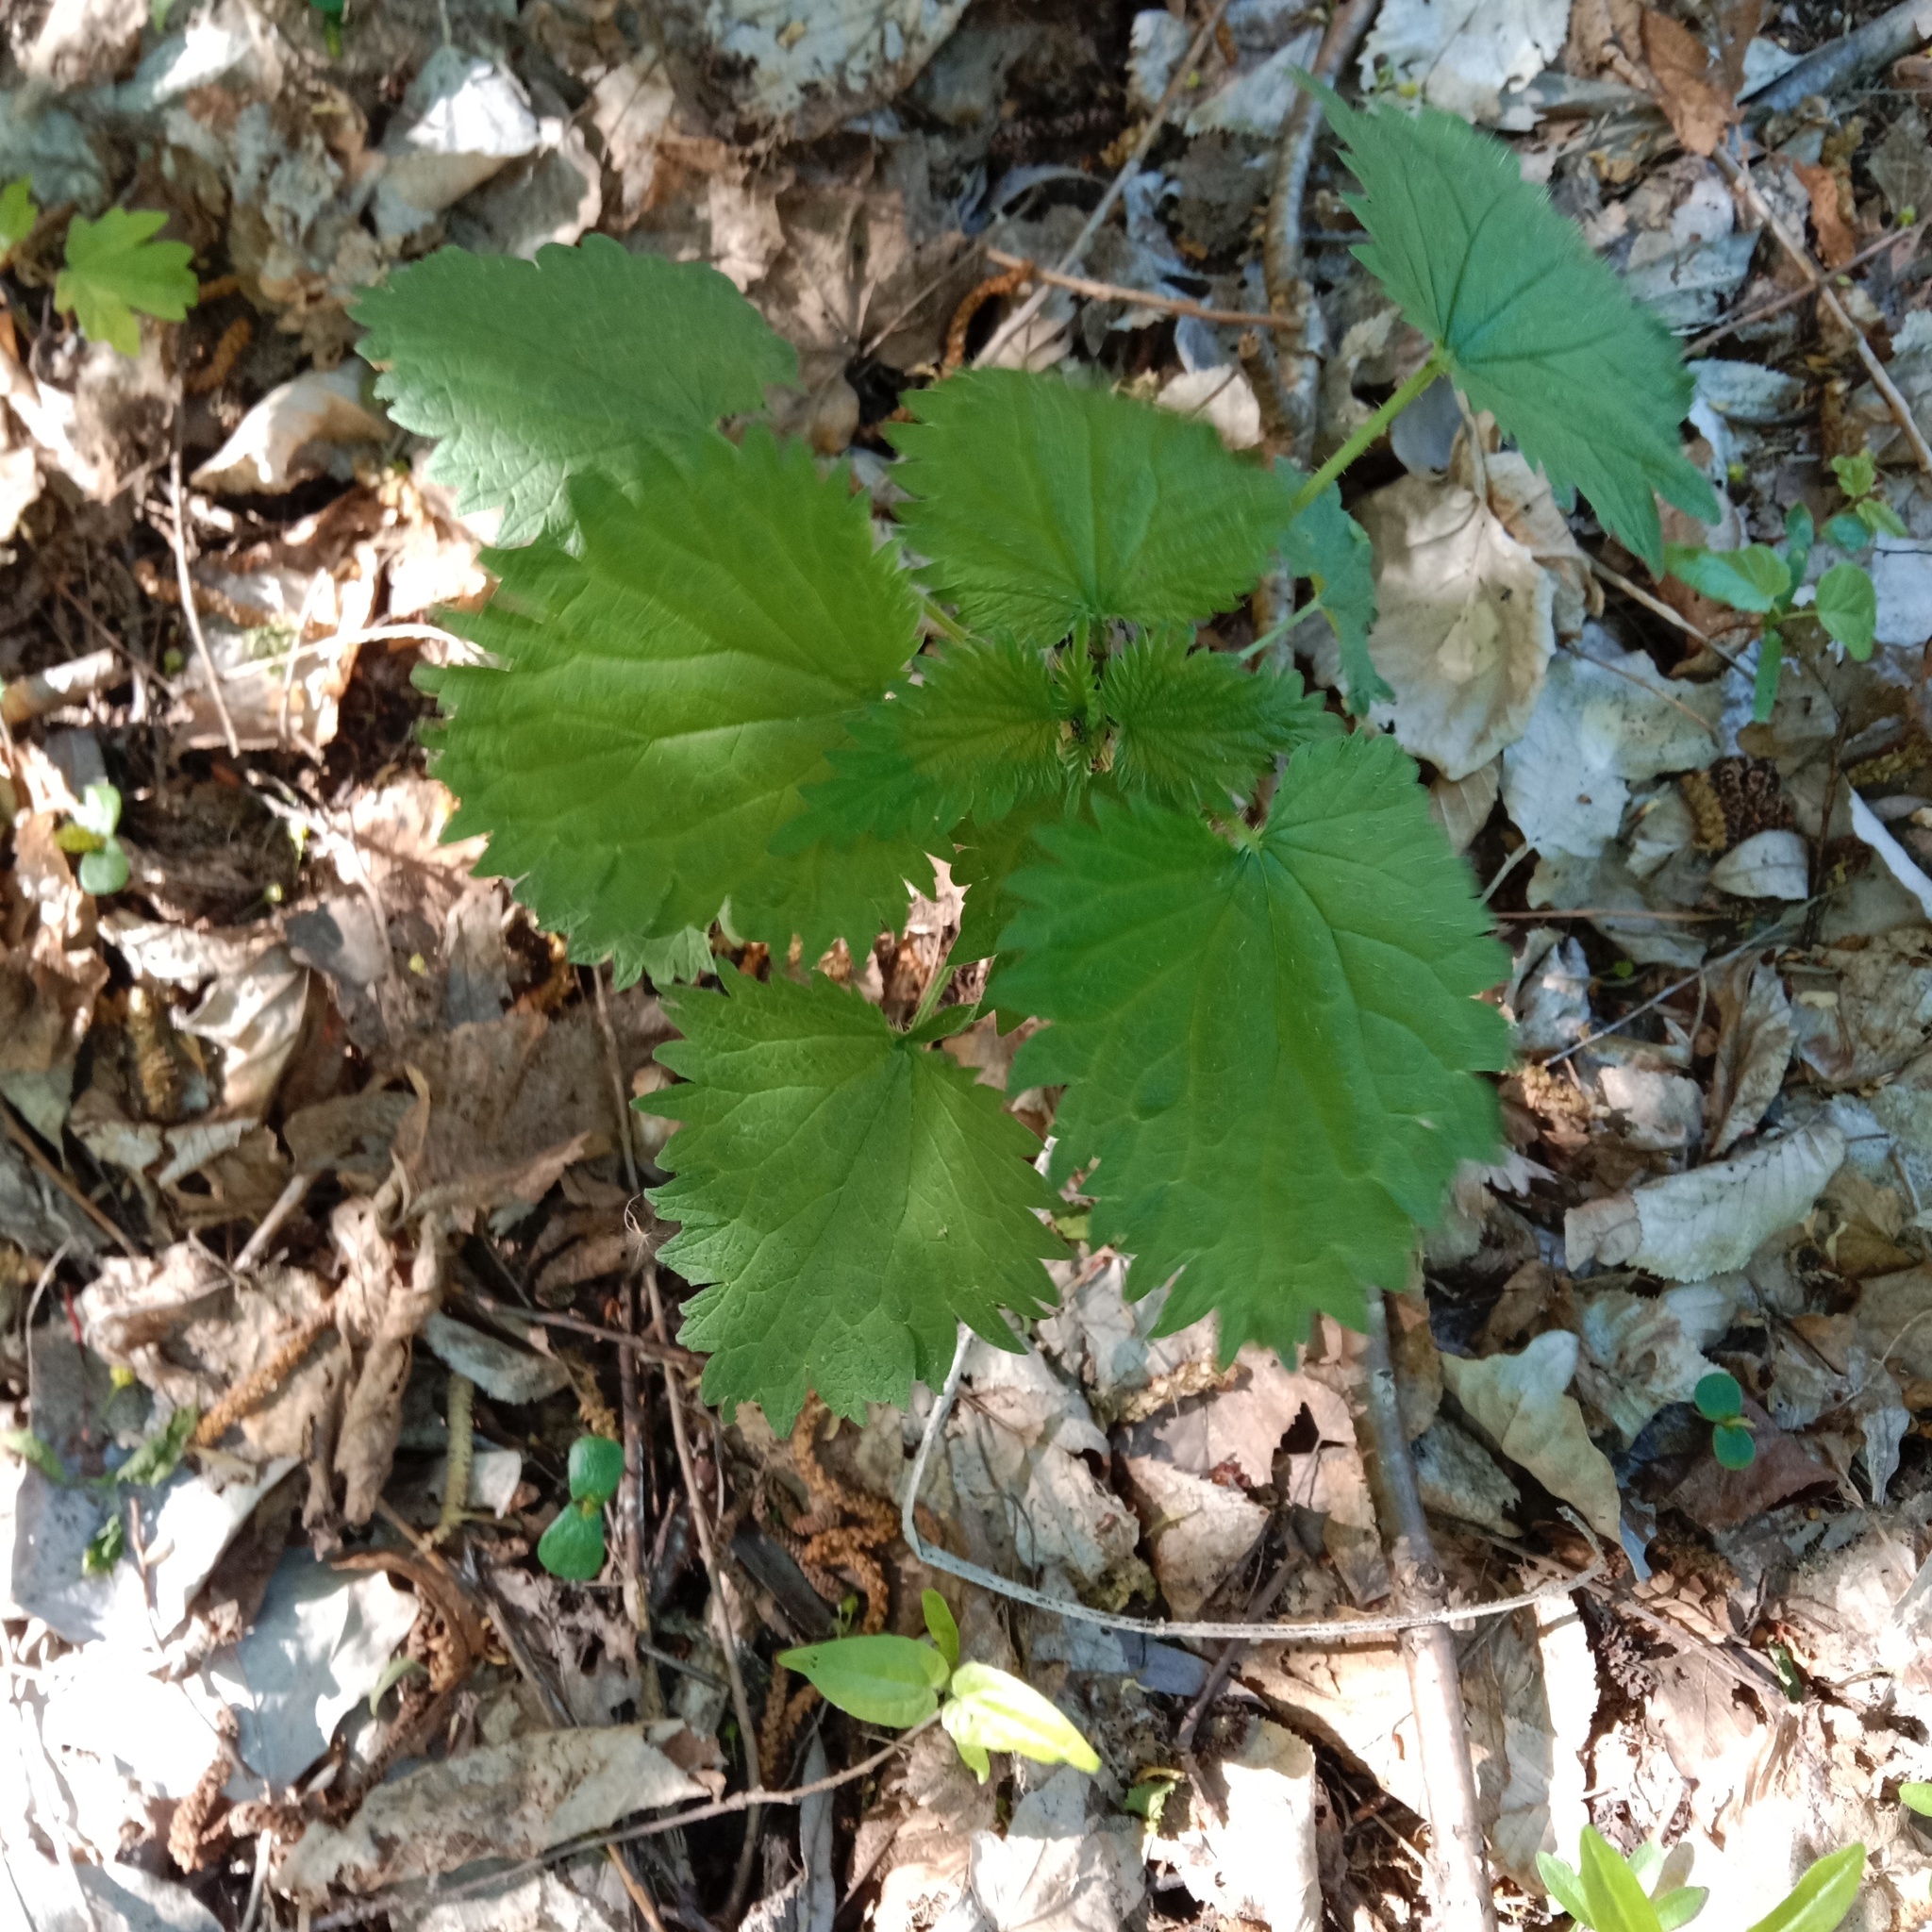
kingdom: Plantae
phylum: Tracheophyta
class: Magnoliopsida
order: Rosales
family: Urticaceae
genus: Urtica
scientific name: Urtica dioica
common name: Common nettle
